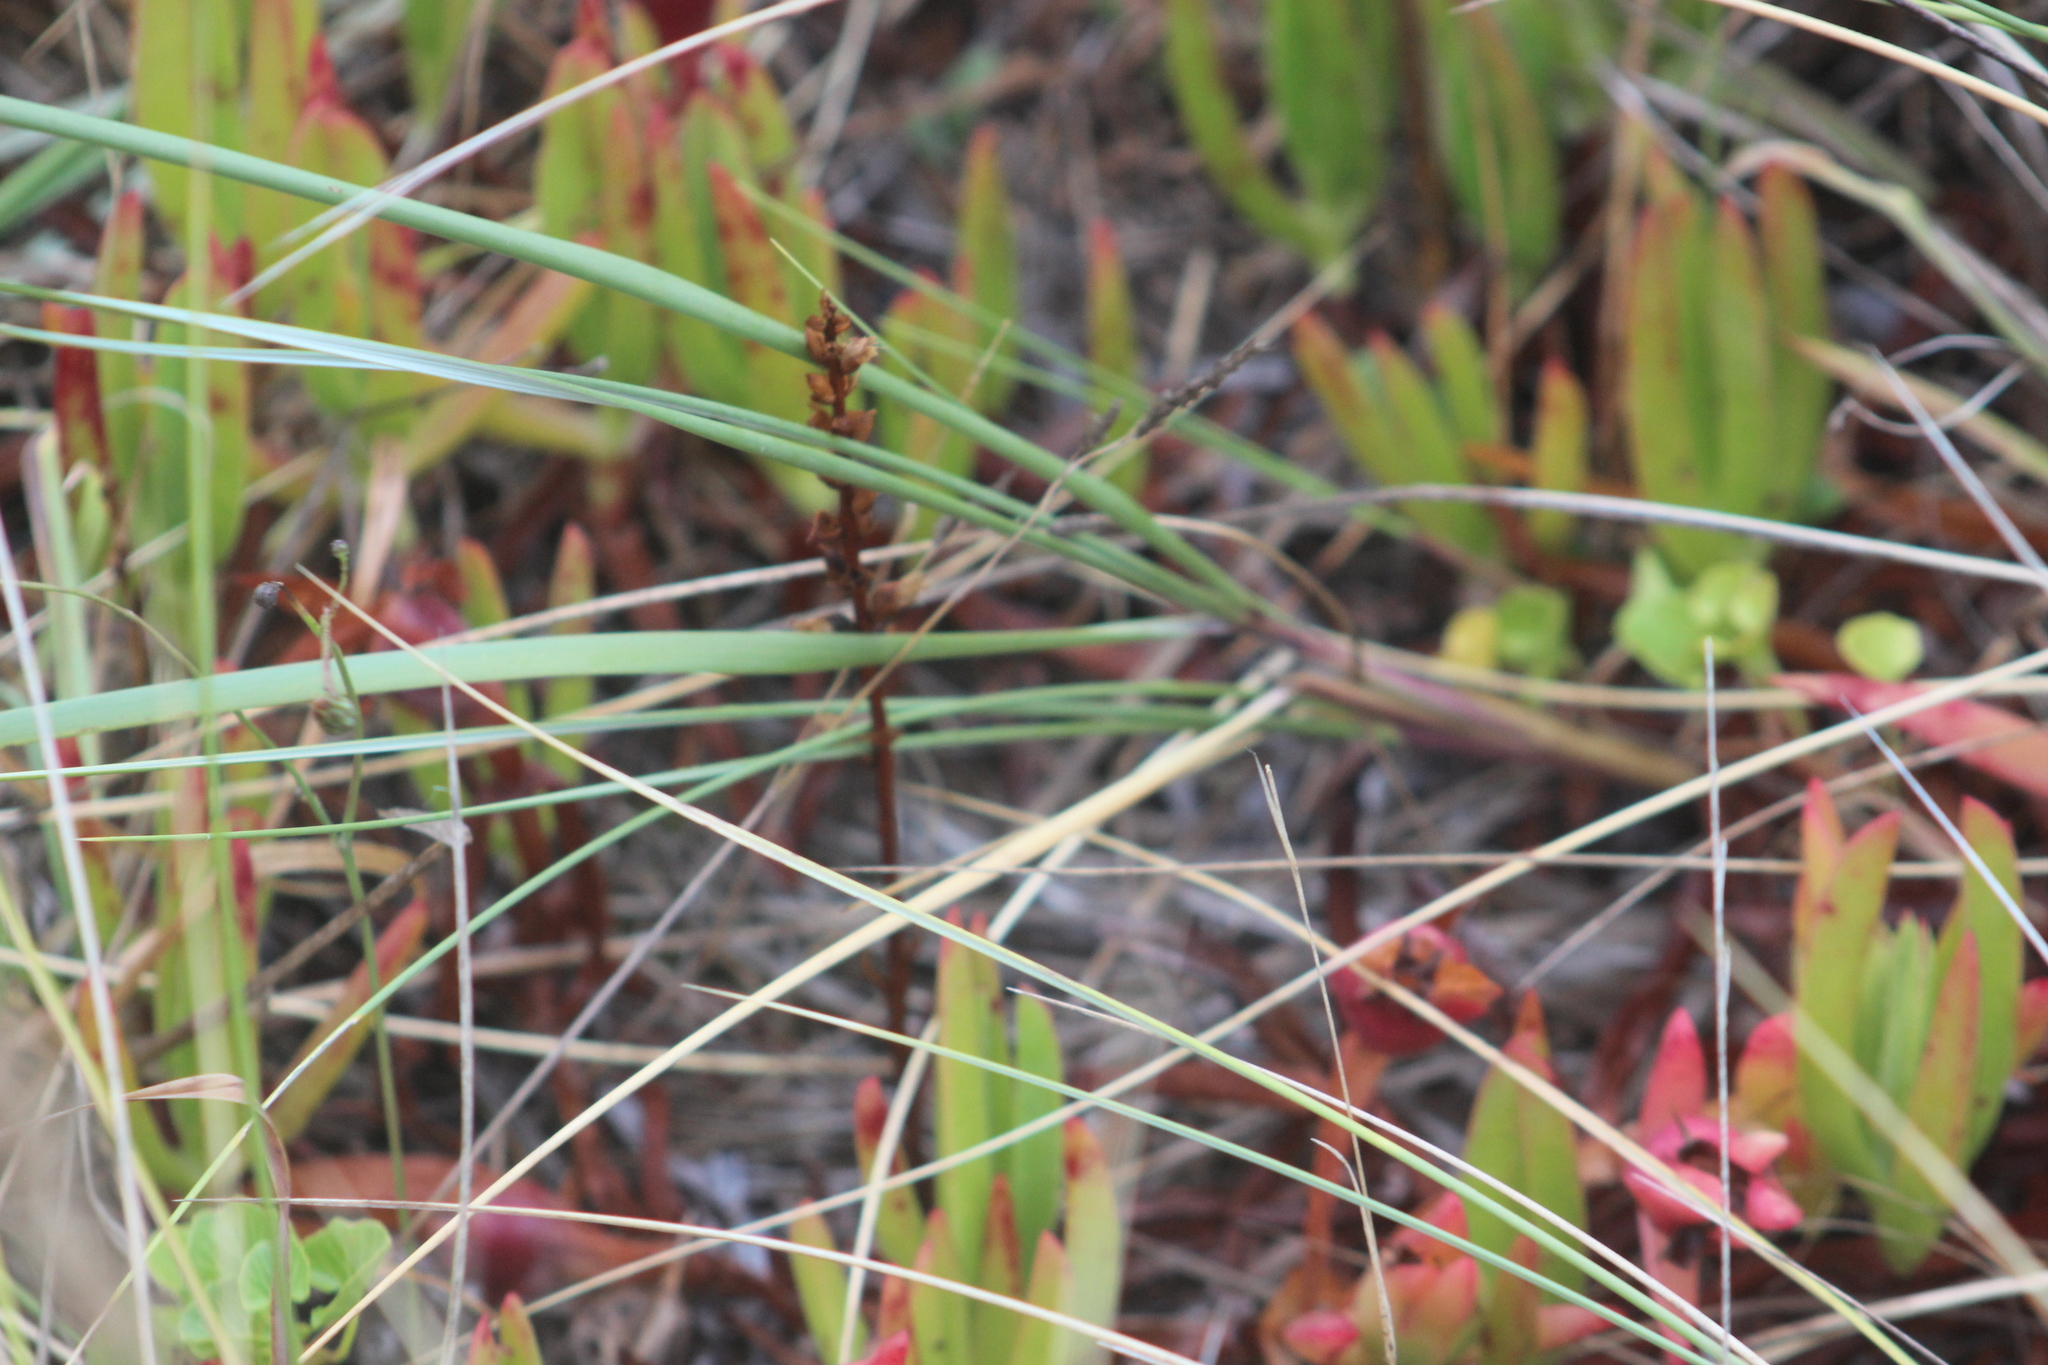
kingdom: Plantae
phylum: Tracheophyta
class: Magnoliopsida
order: Caryophyllales
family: Aizoaceae
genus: Carpobrotus
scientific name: Carpobrotus edulis
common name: Hottentot-fig
